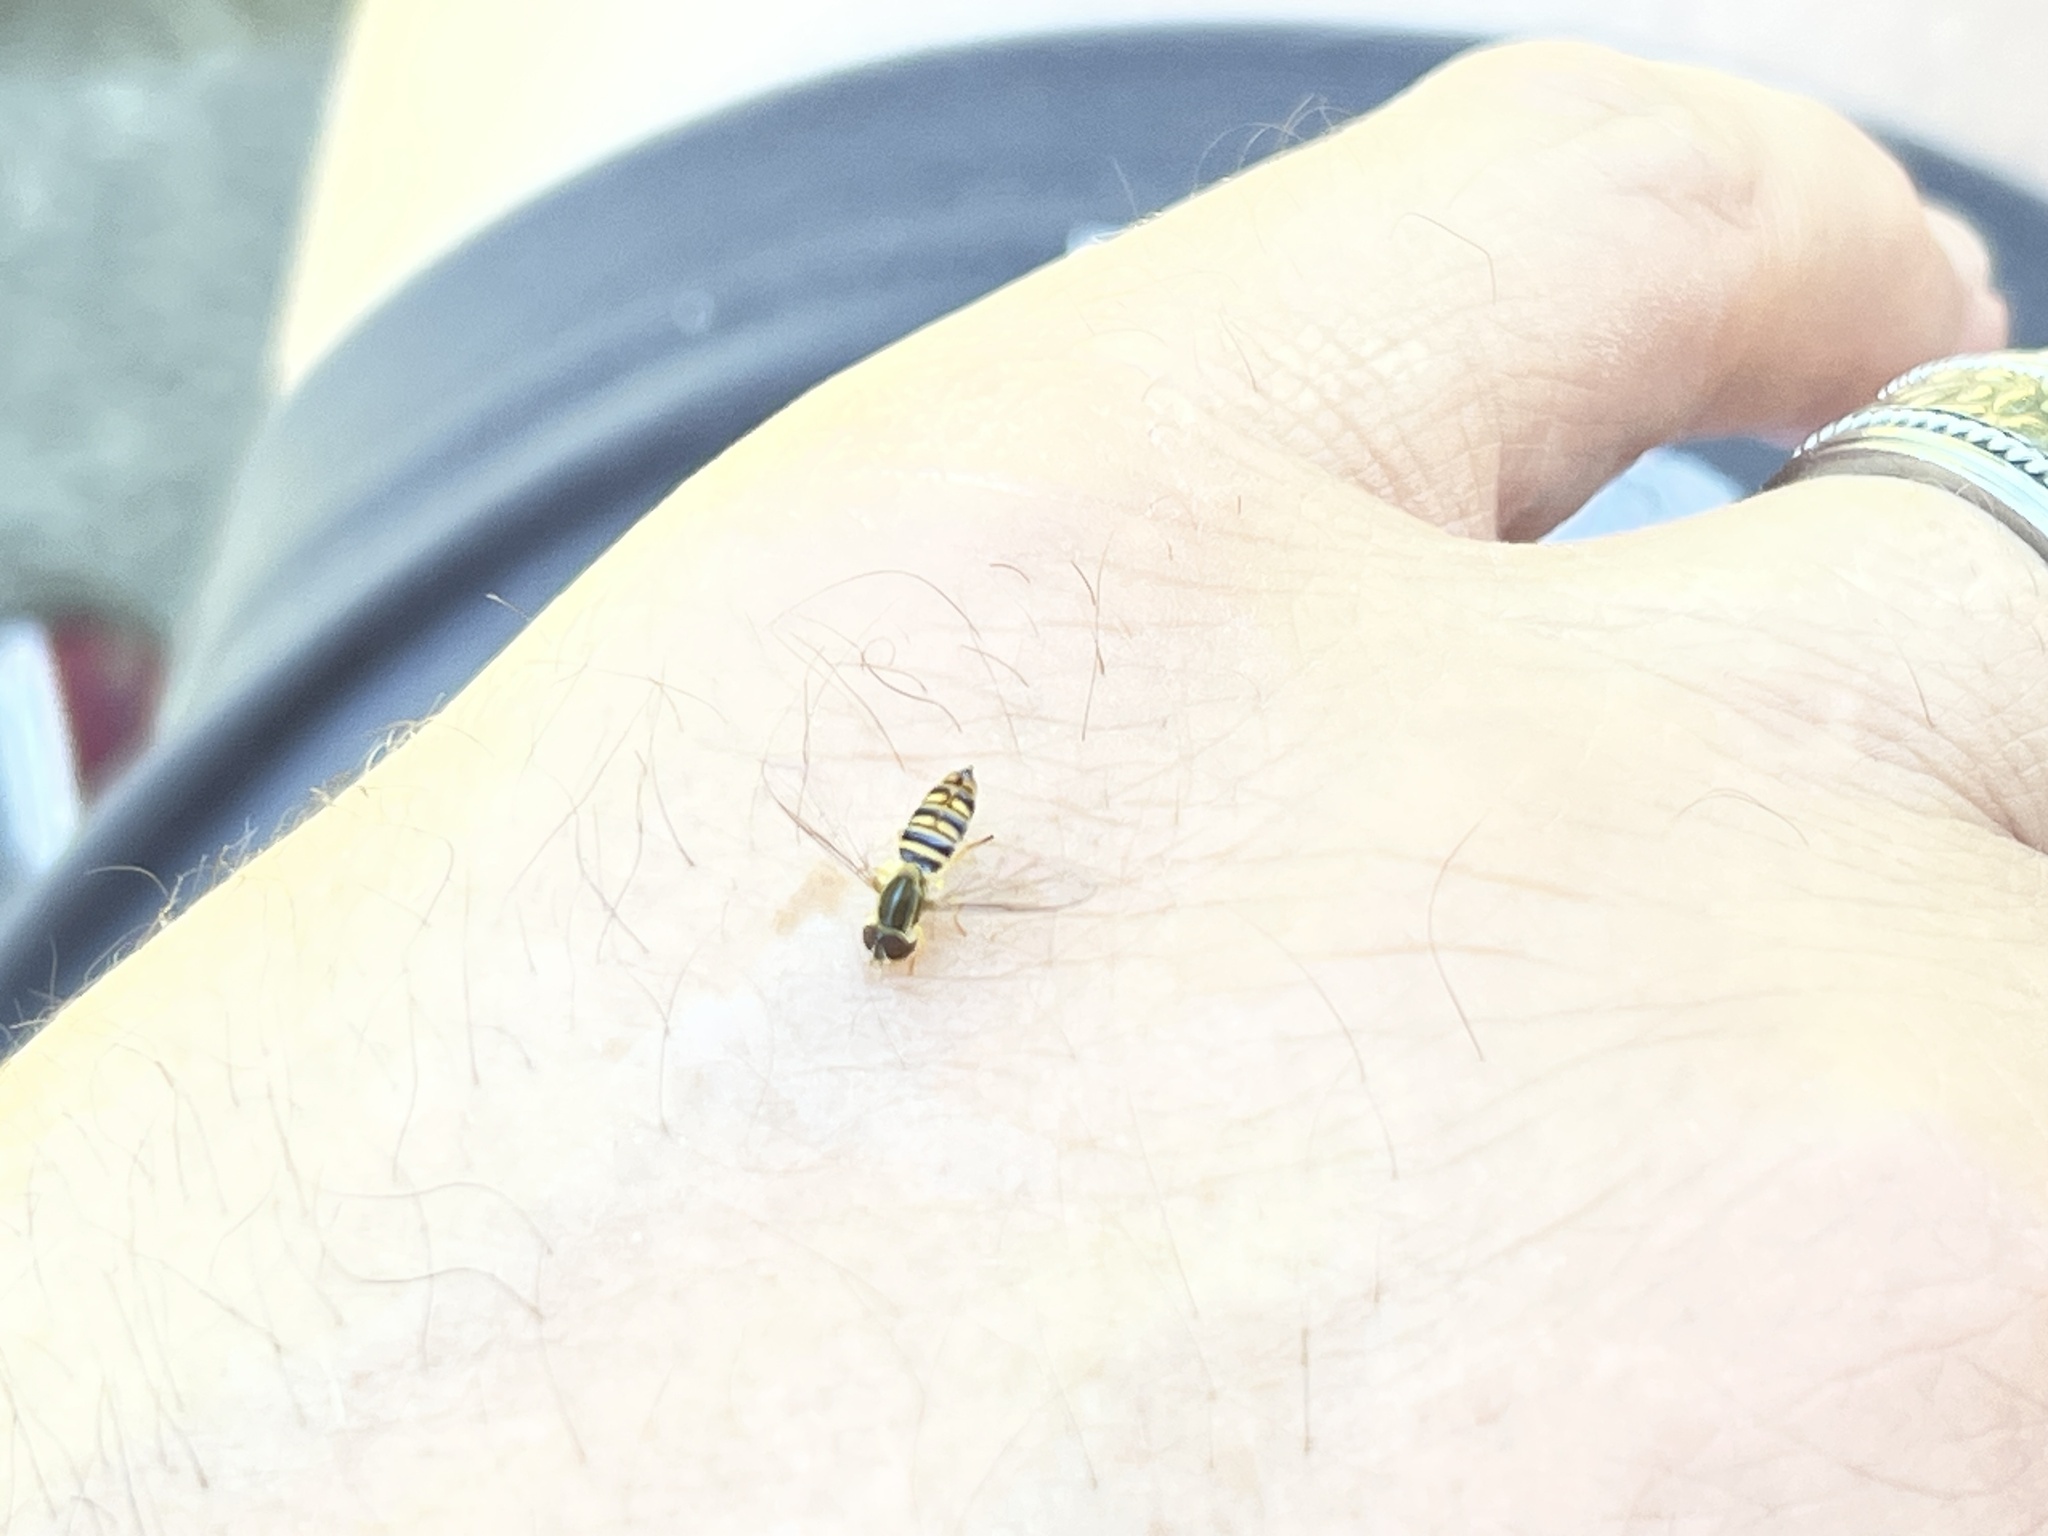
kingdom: Animalia
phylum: Arthropoda
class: Insecta
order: Diptera
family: Syrphidae
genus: Toxomerus
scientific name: Toxomerus politus
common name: Maize calligrapher
